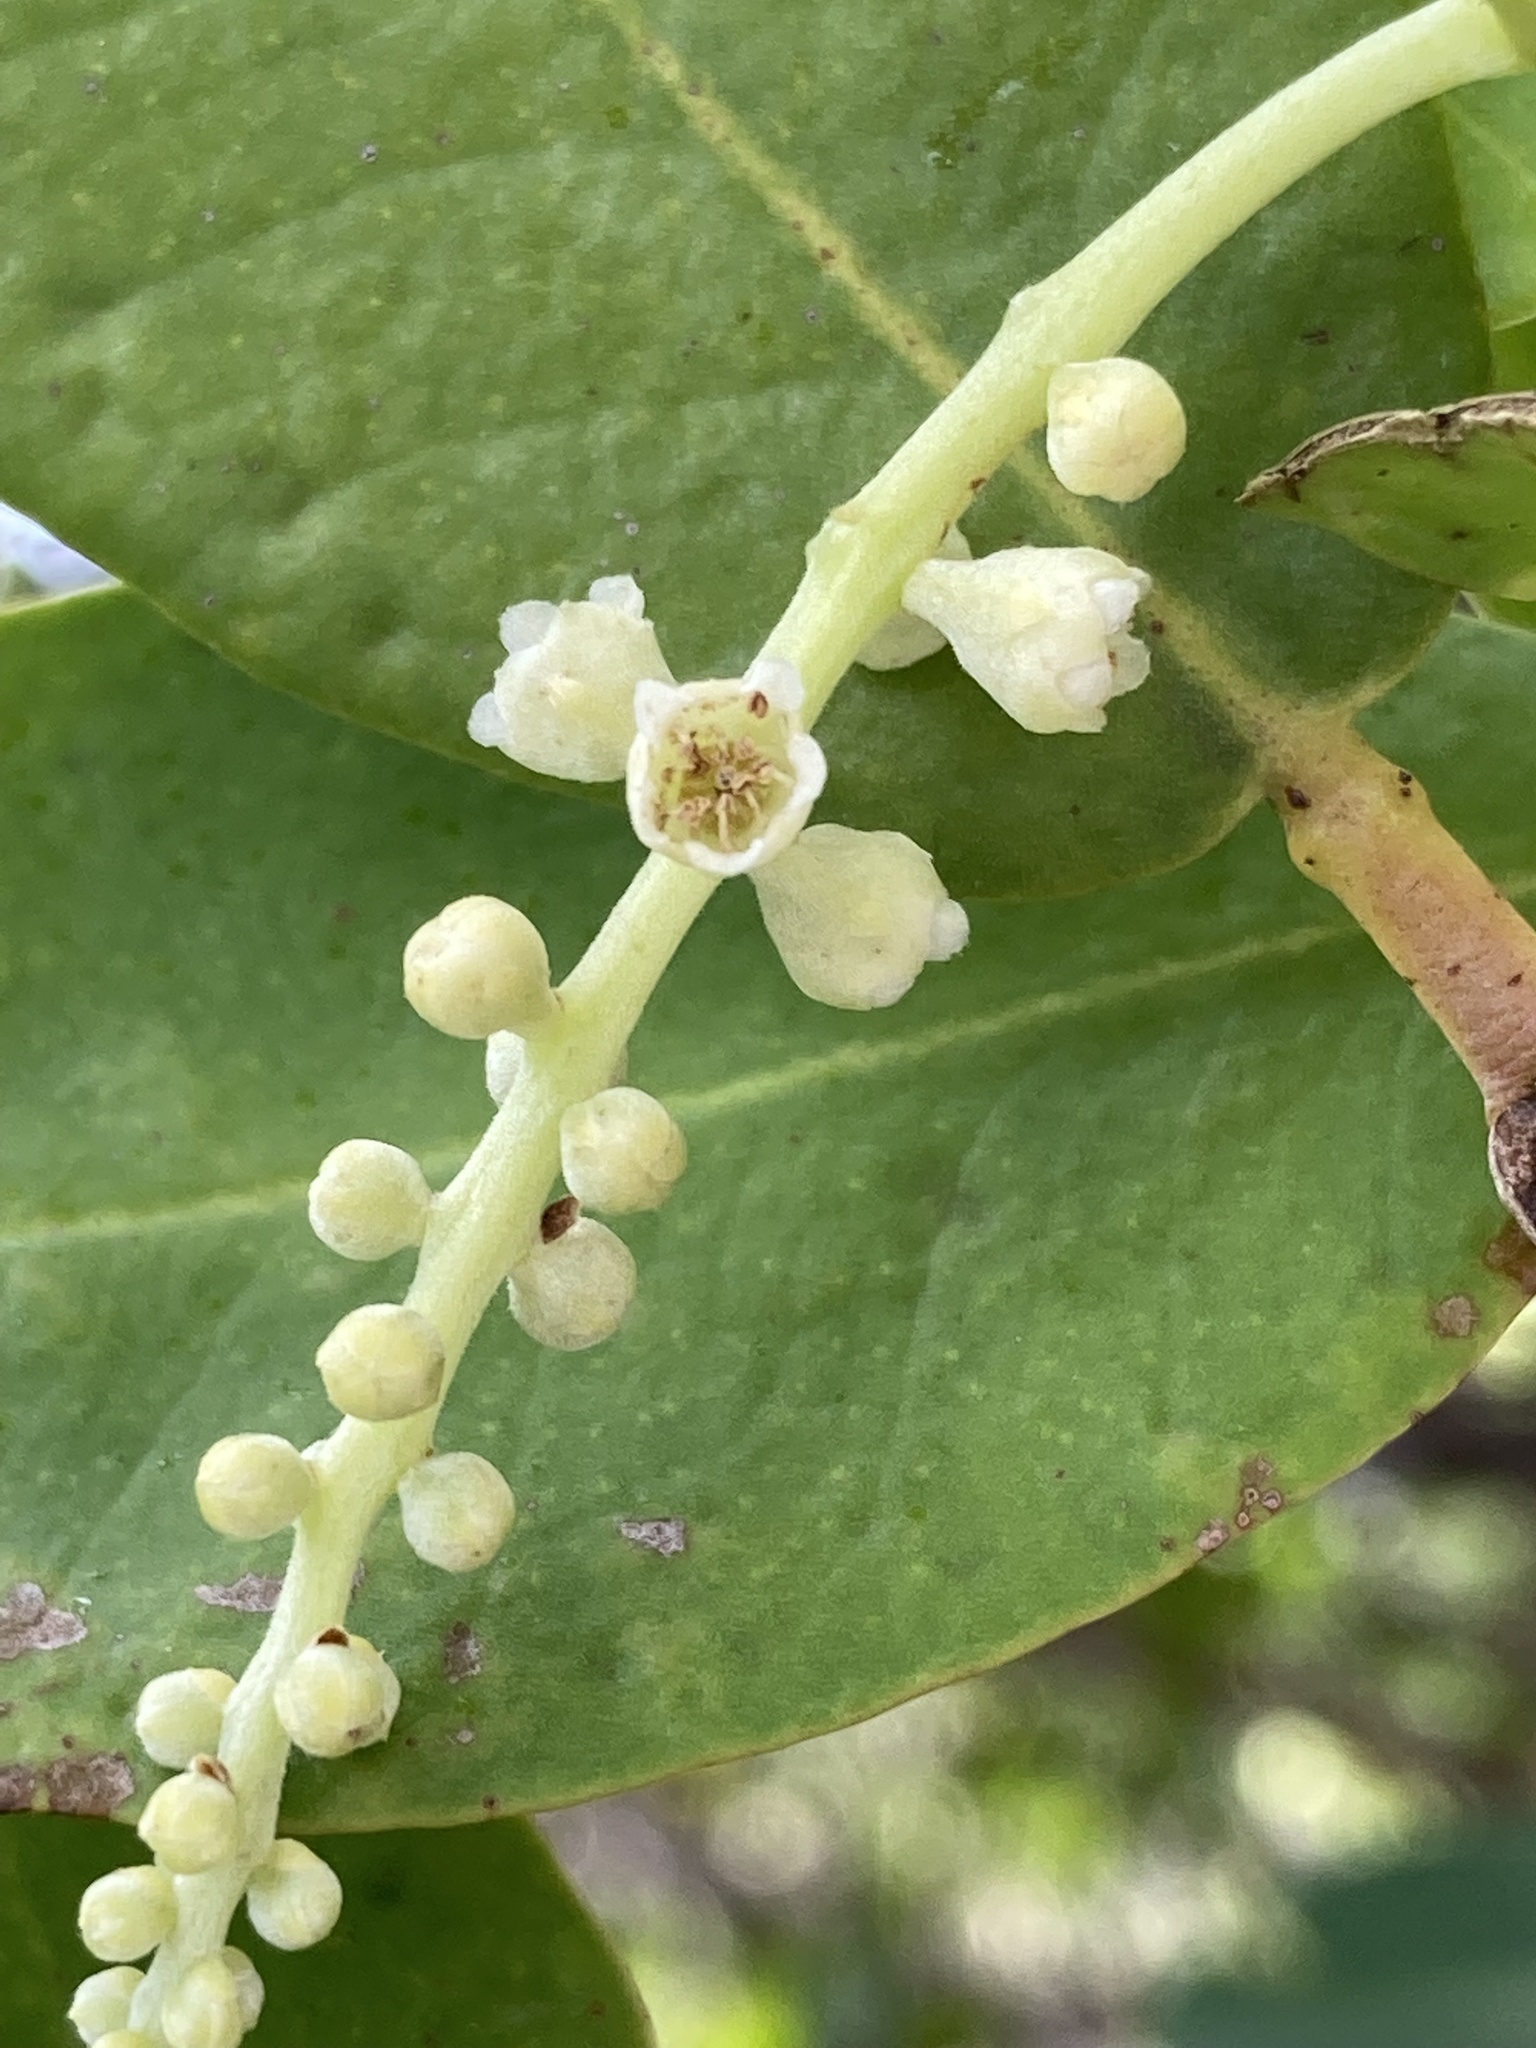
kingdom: Plantae
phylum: Tracheophyta
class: Magnoliopsida
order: Myrtales
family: Combretaceae
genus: Laguncularia
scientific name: Laguncularia racemosa
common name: White mangrove
